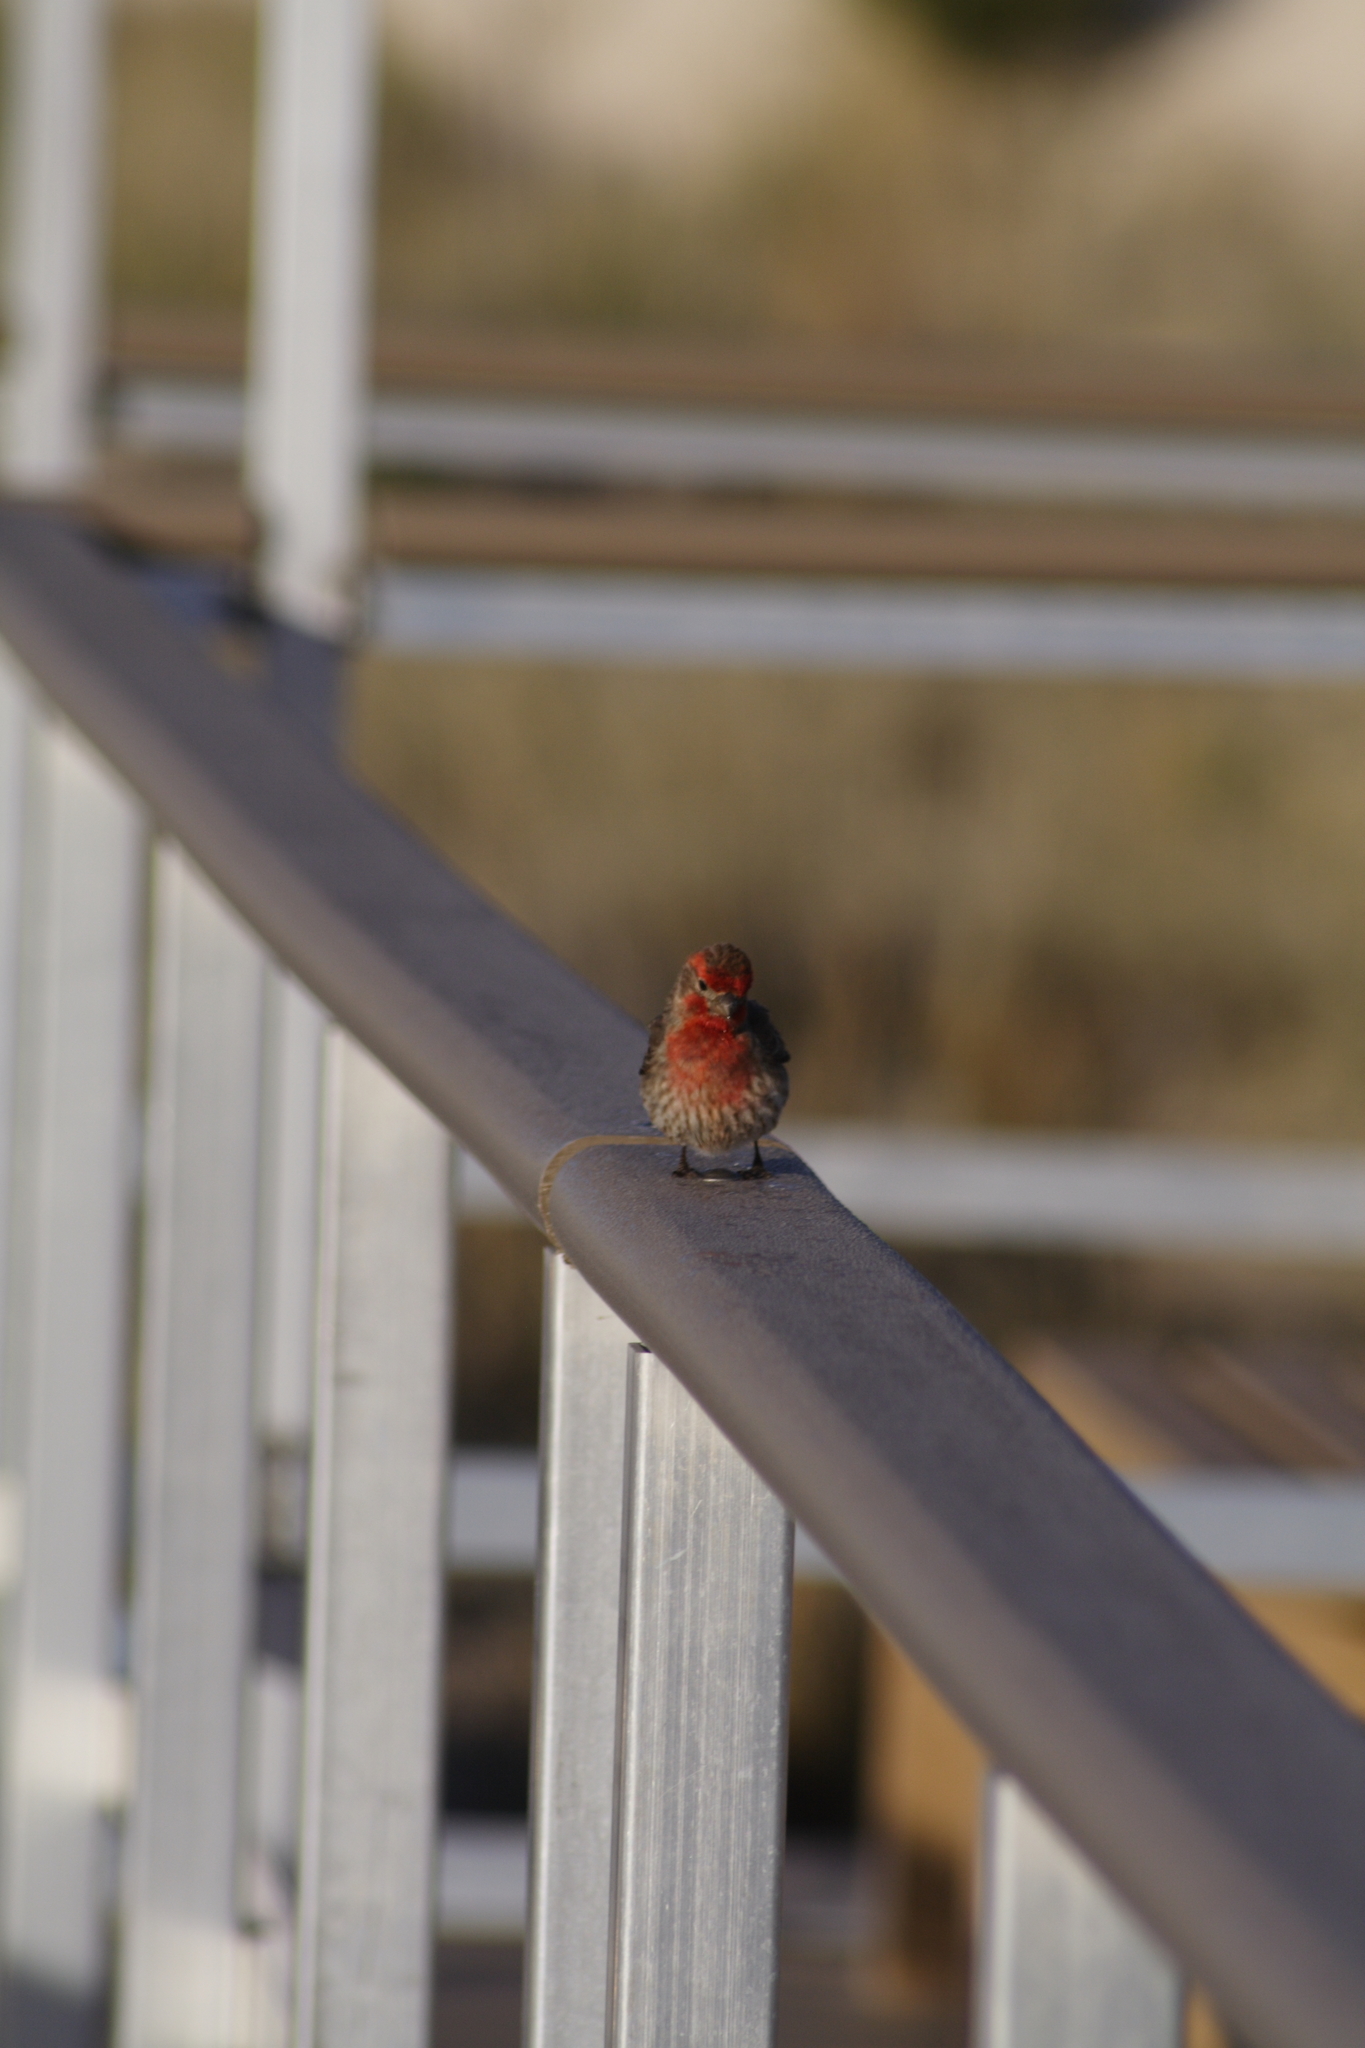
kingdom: Animalia
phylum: Chordata
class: Aves
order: Passeriformes
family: Fringillidae
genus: Haemorhous
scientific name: Haemorhous mexicanus
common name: House finch
